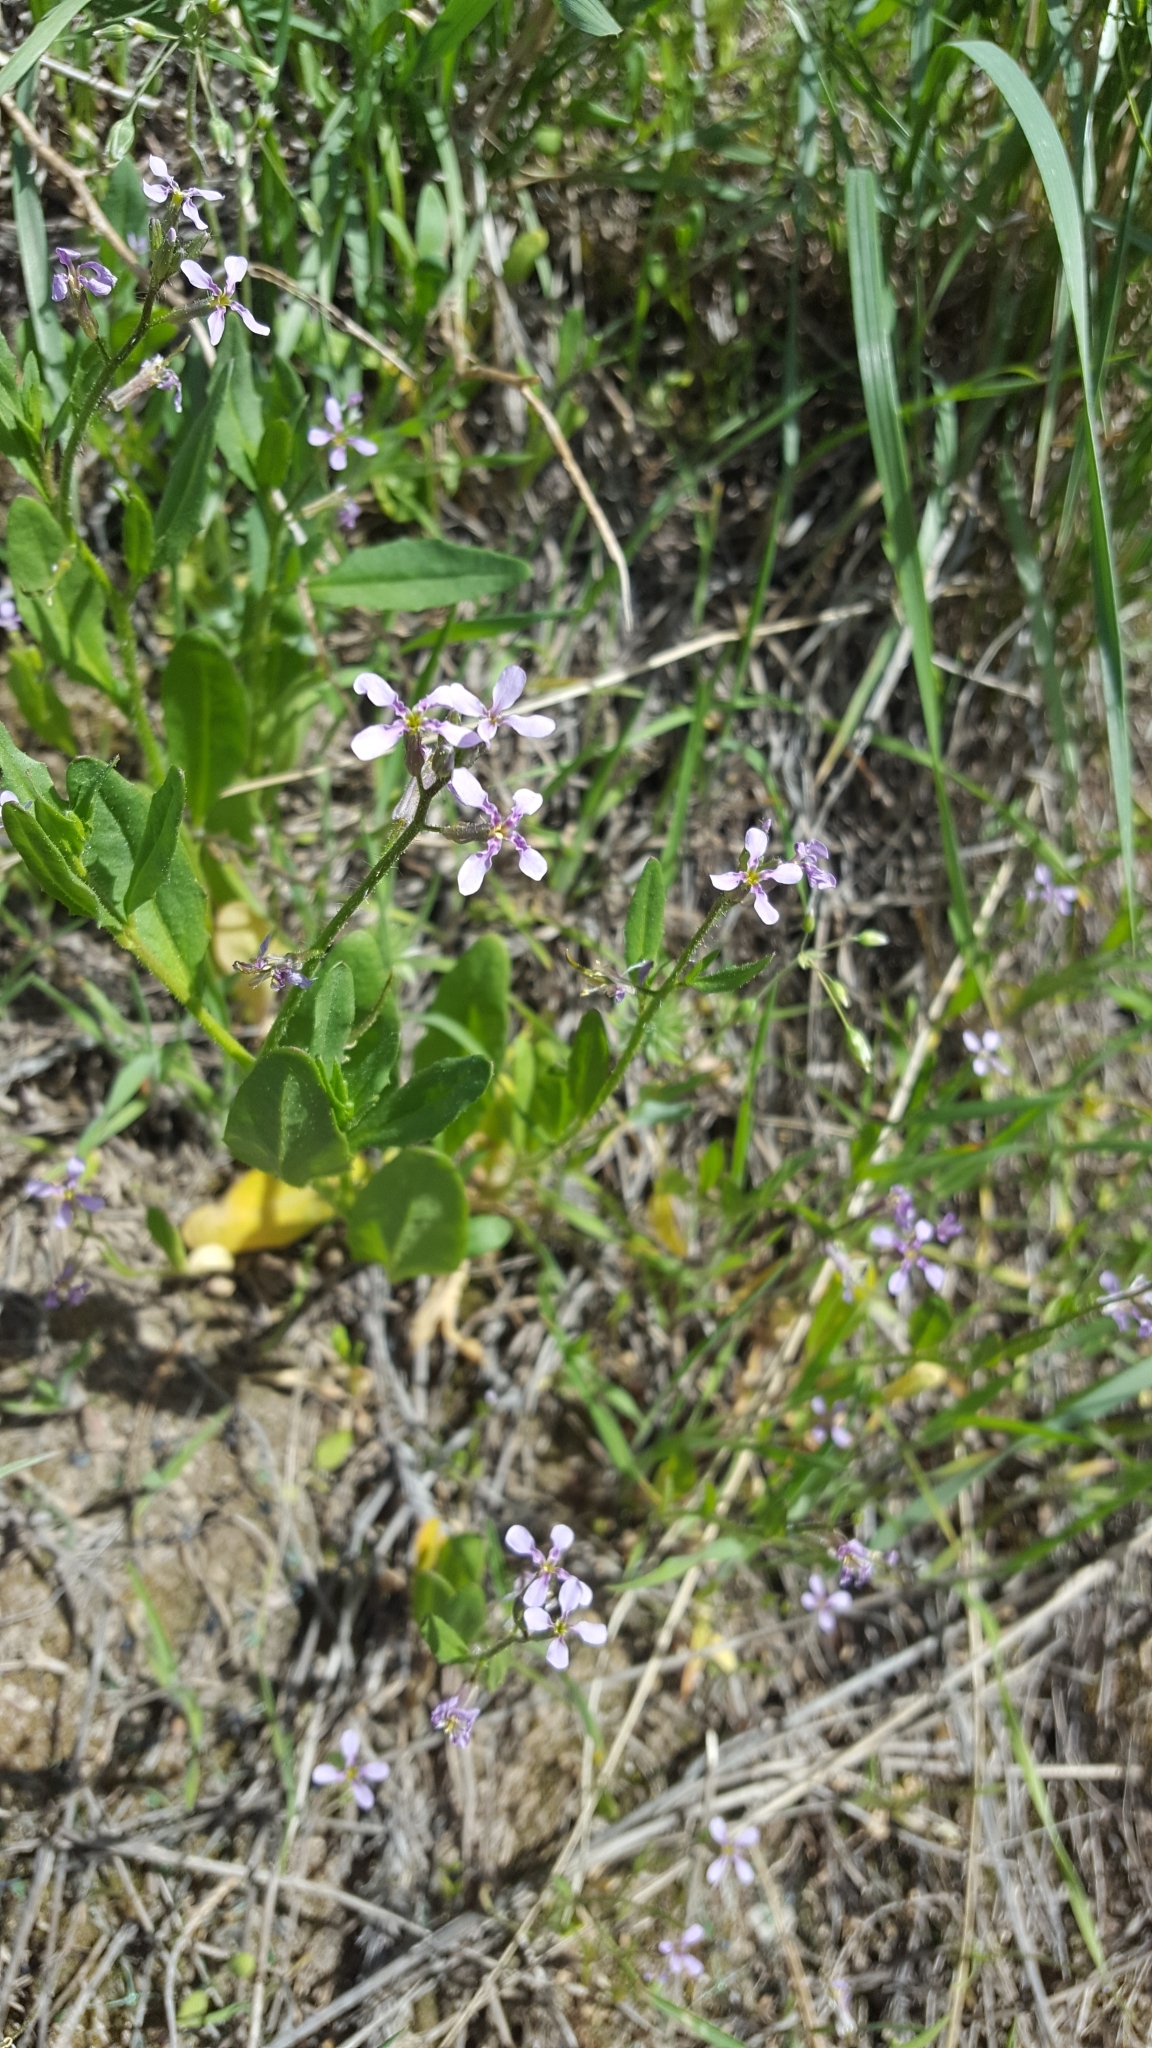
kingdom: Plantae
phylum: Tracheophyta
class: Magnoliopsida
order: Brassicales
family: Brassicaceae
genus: Chorispora
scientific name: Chorispora tenella
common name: Crossflower
